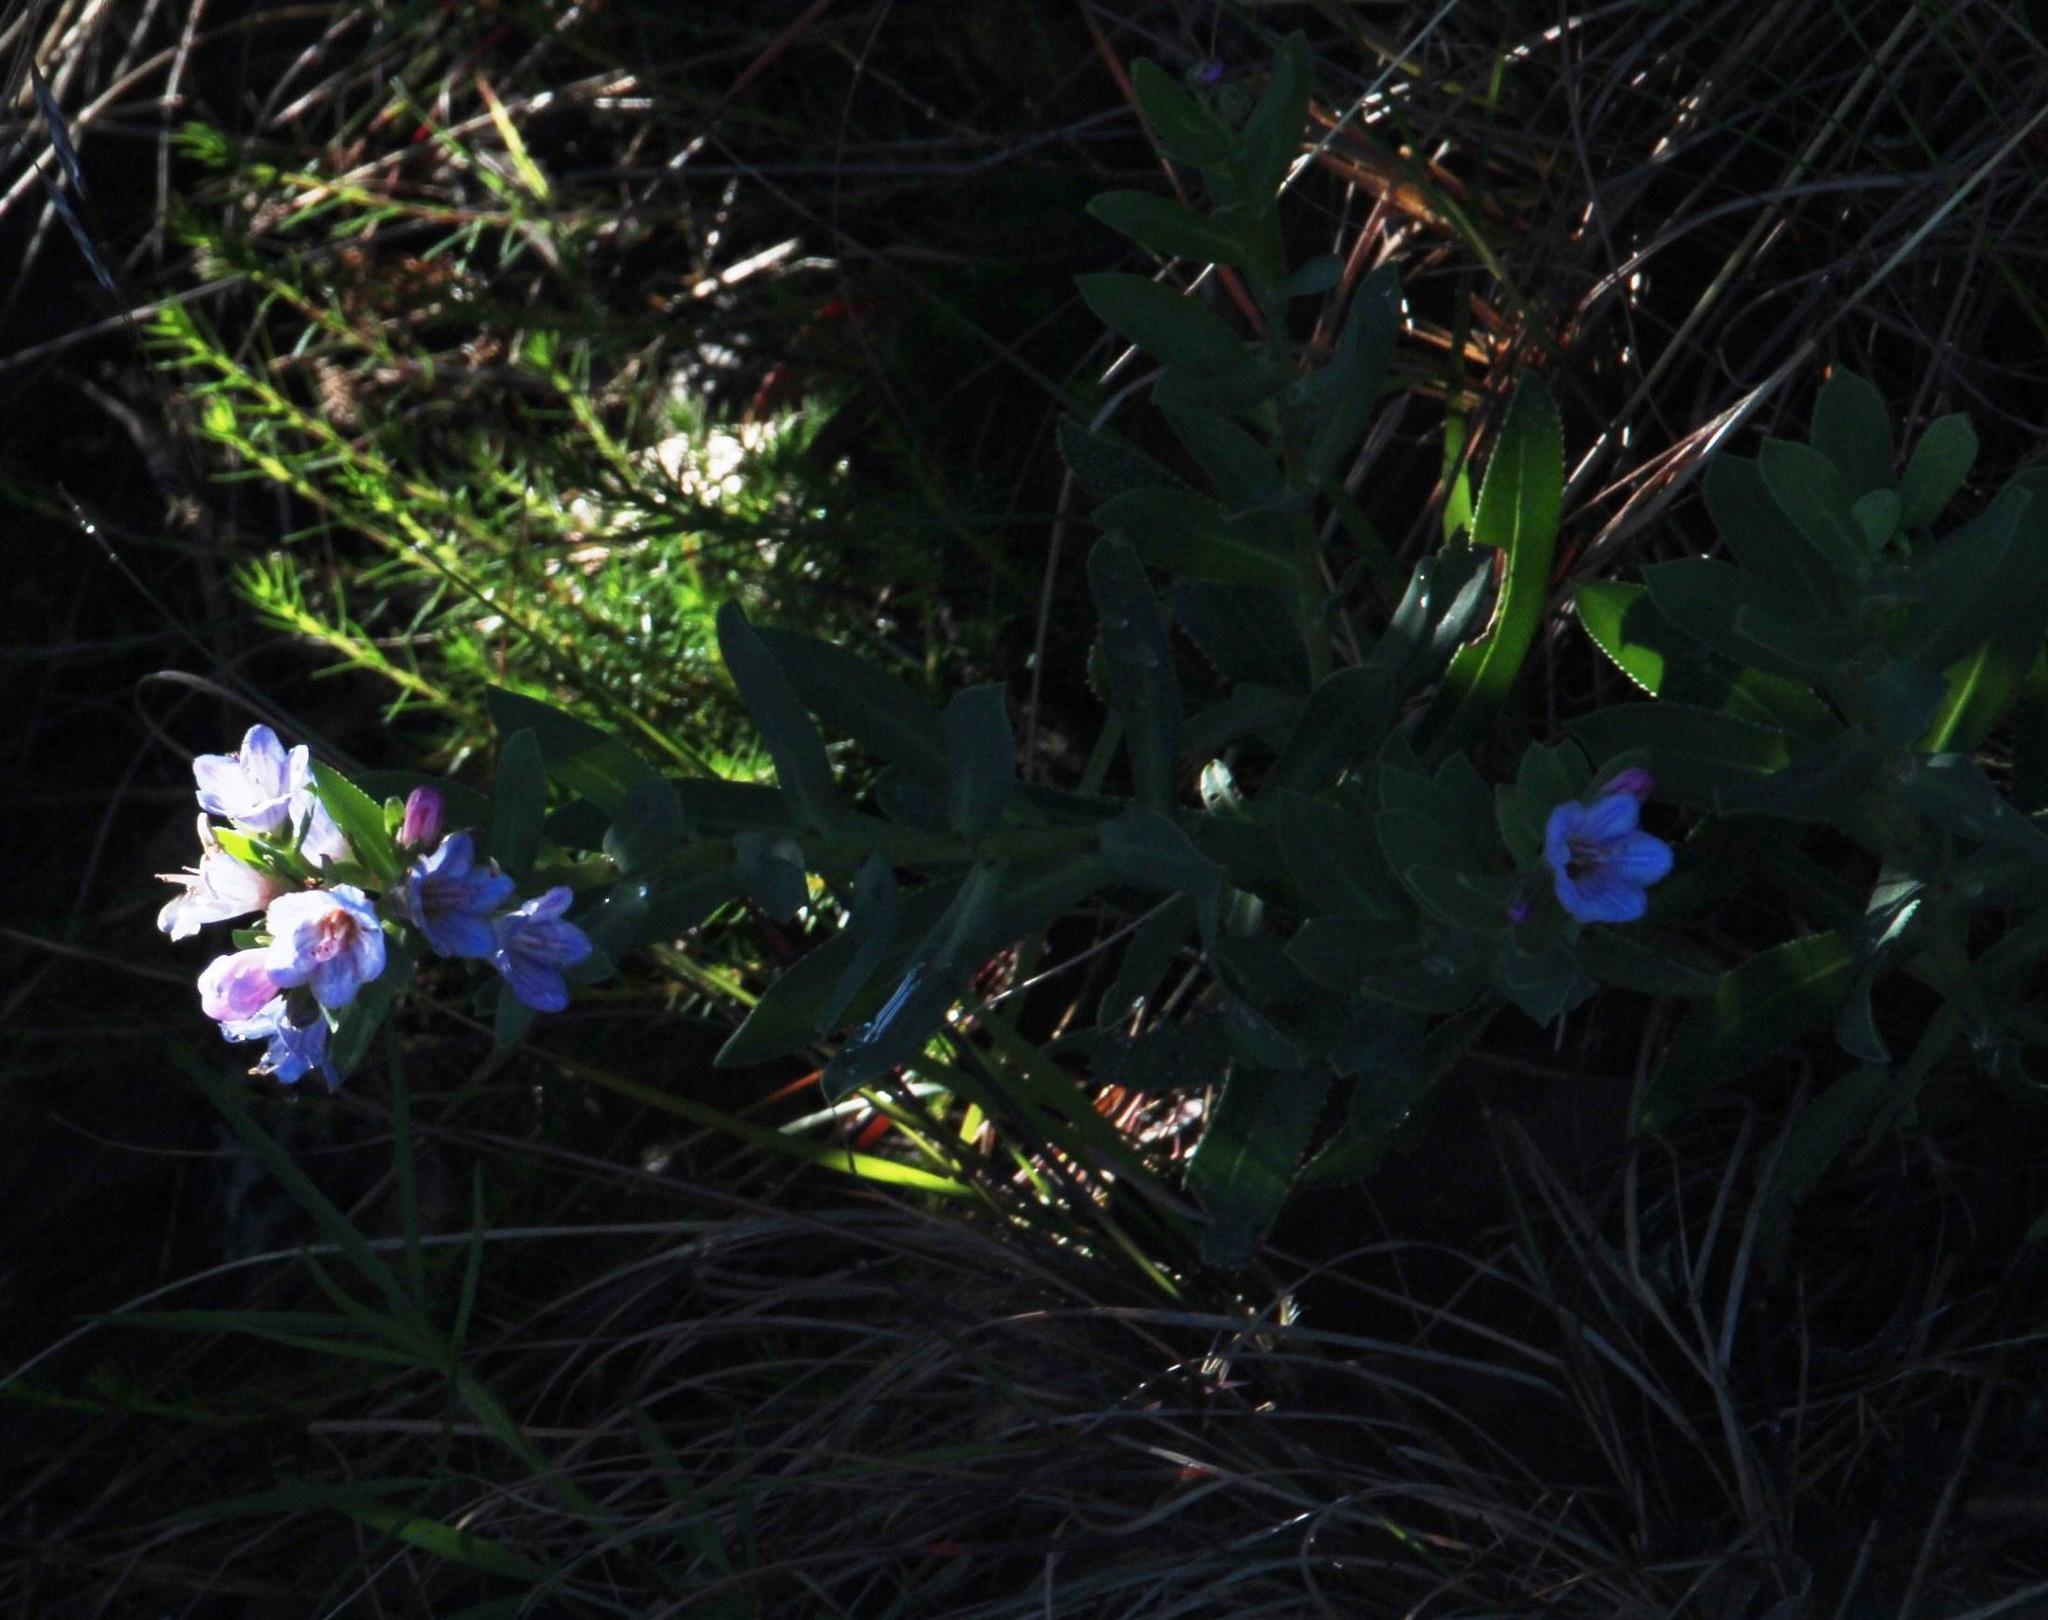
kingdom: Plantae
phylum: Tracheophyta
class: Magnoliopsida
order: Boraginales
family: Boraginaceae
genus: Lobostemon
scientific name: Lobostemon glaucophyllus
